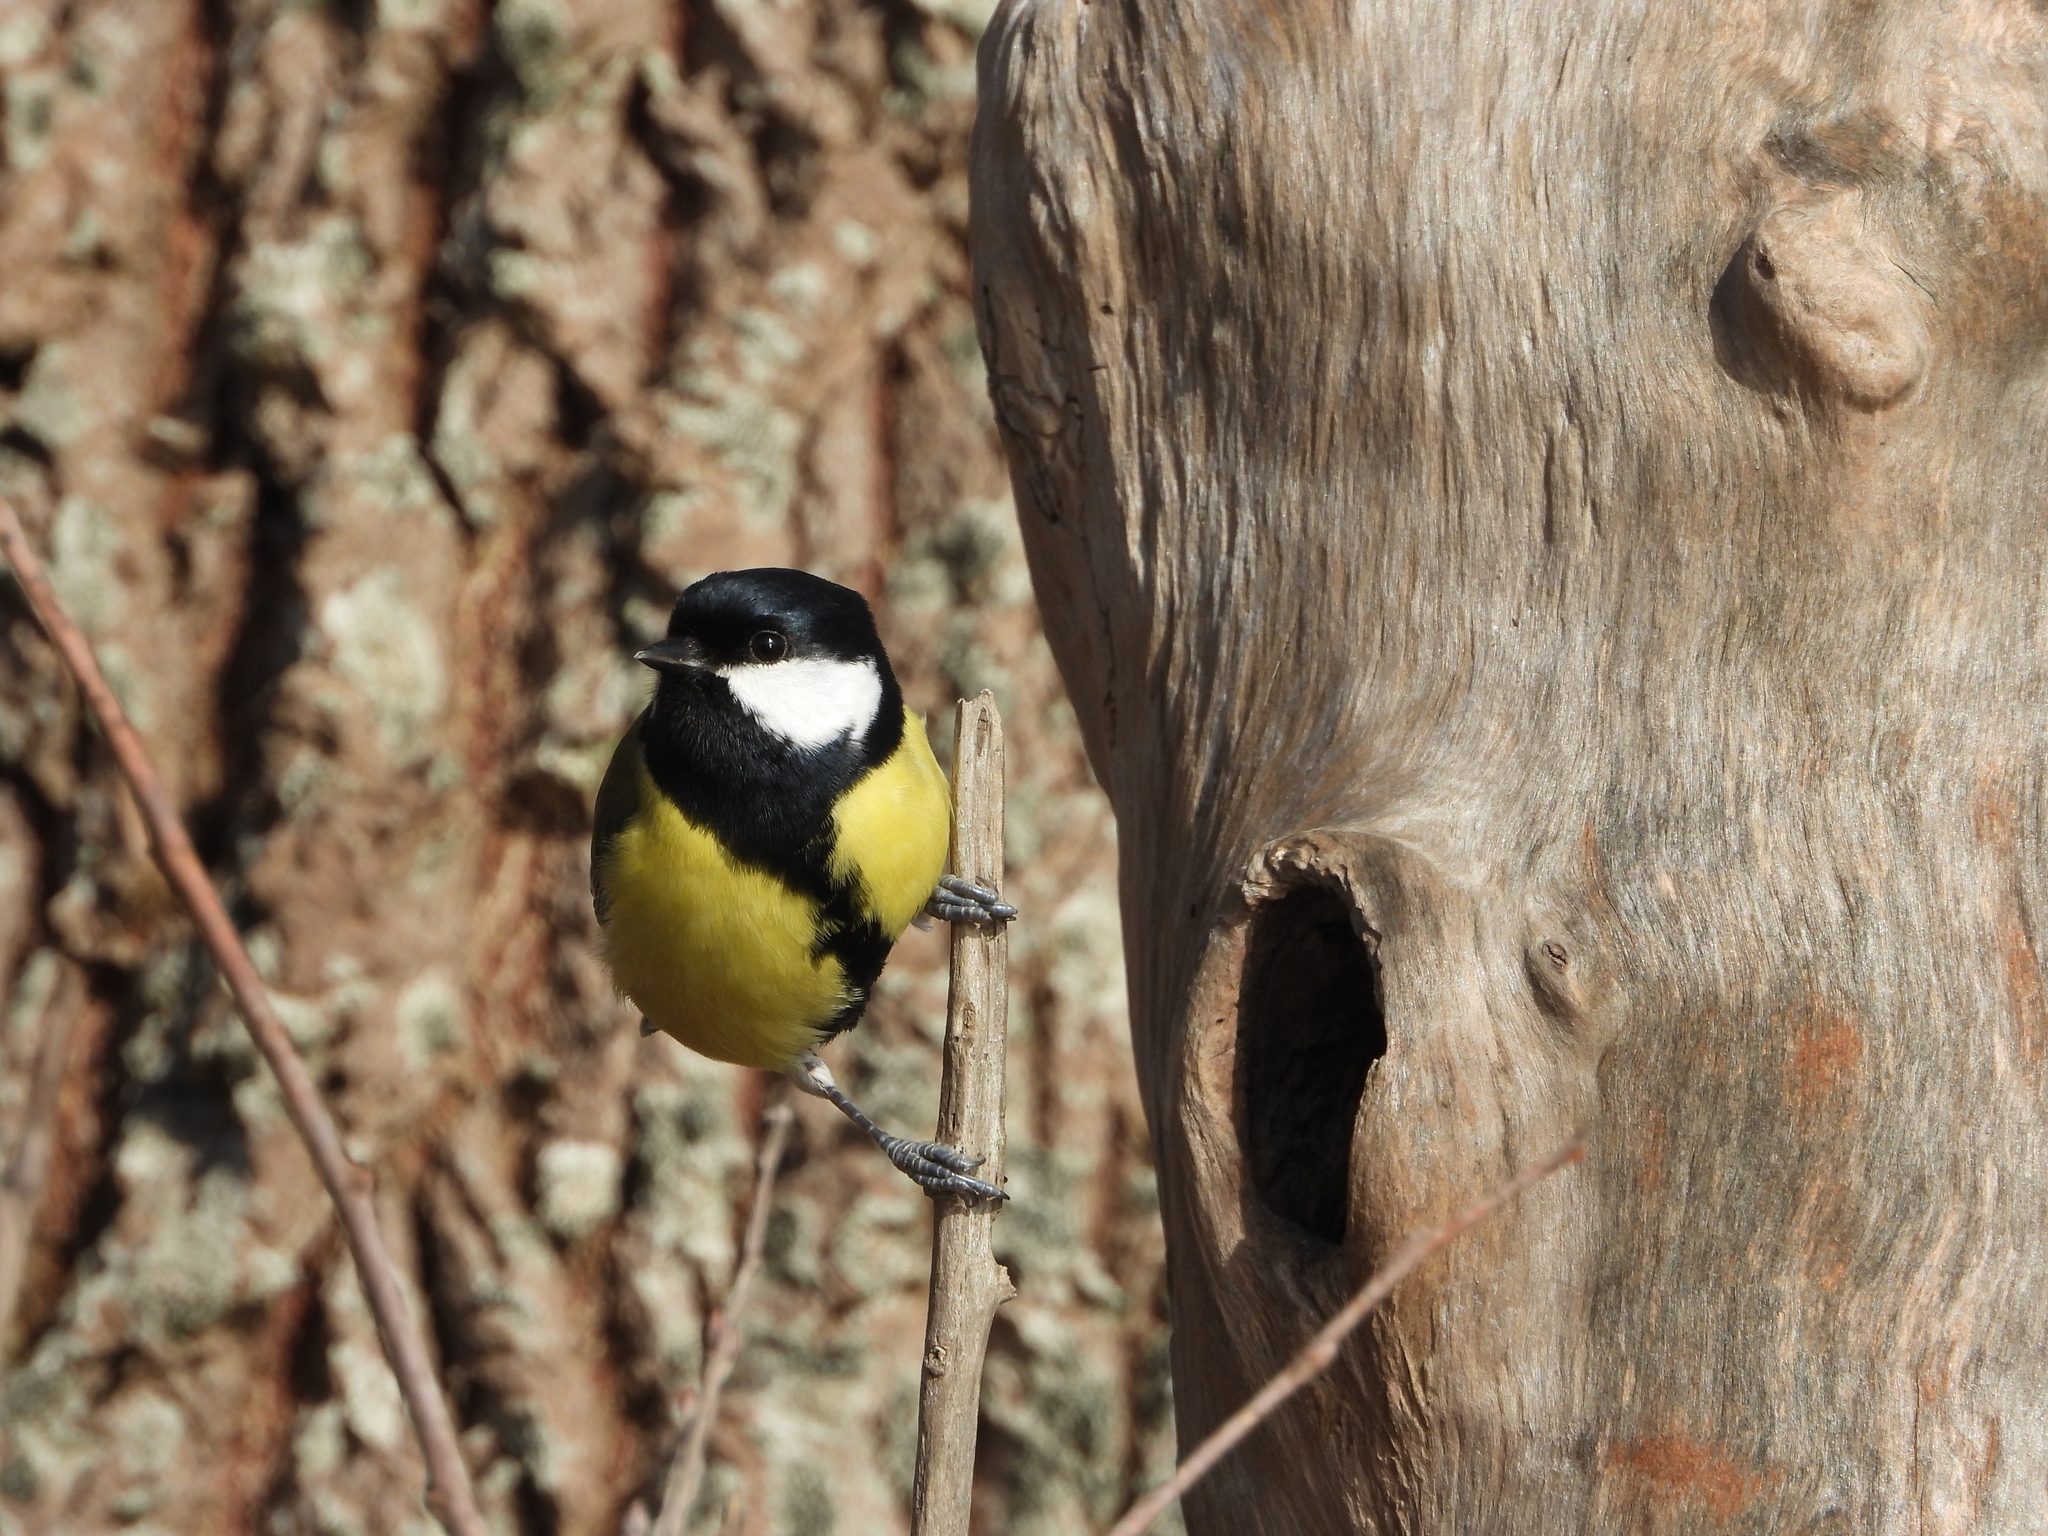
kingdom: Animalia
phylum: Chordata
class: Aves
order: Passeriformes
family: Paridae
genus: Parus
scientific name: Parus major
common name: Great tit
